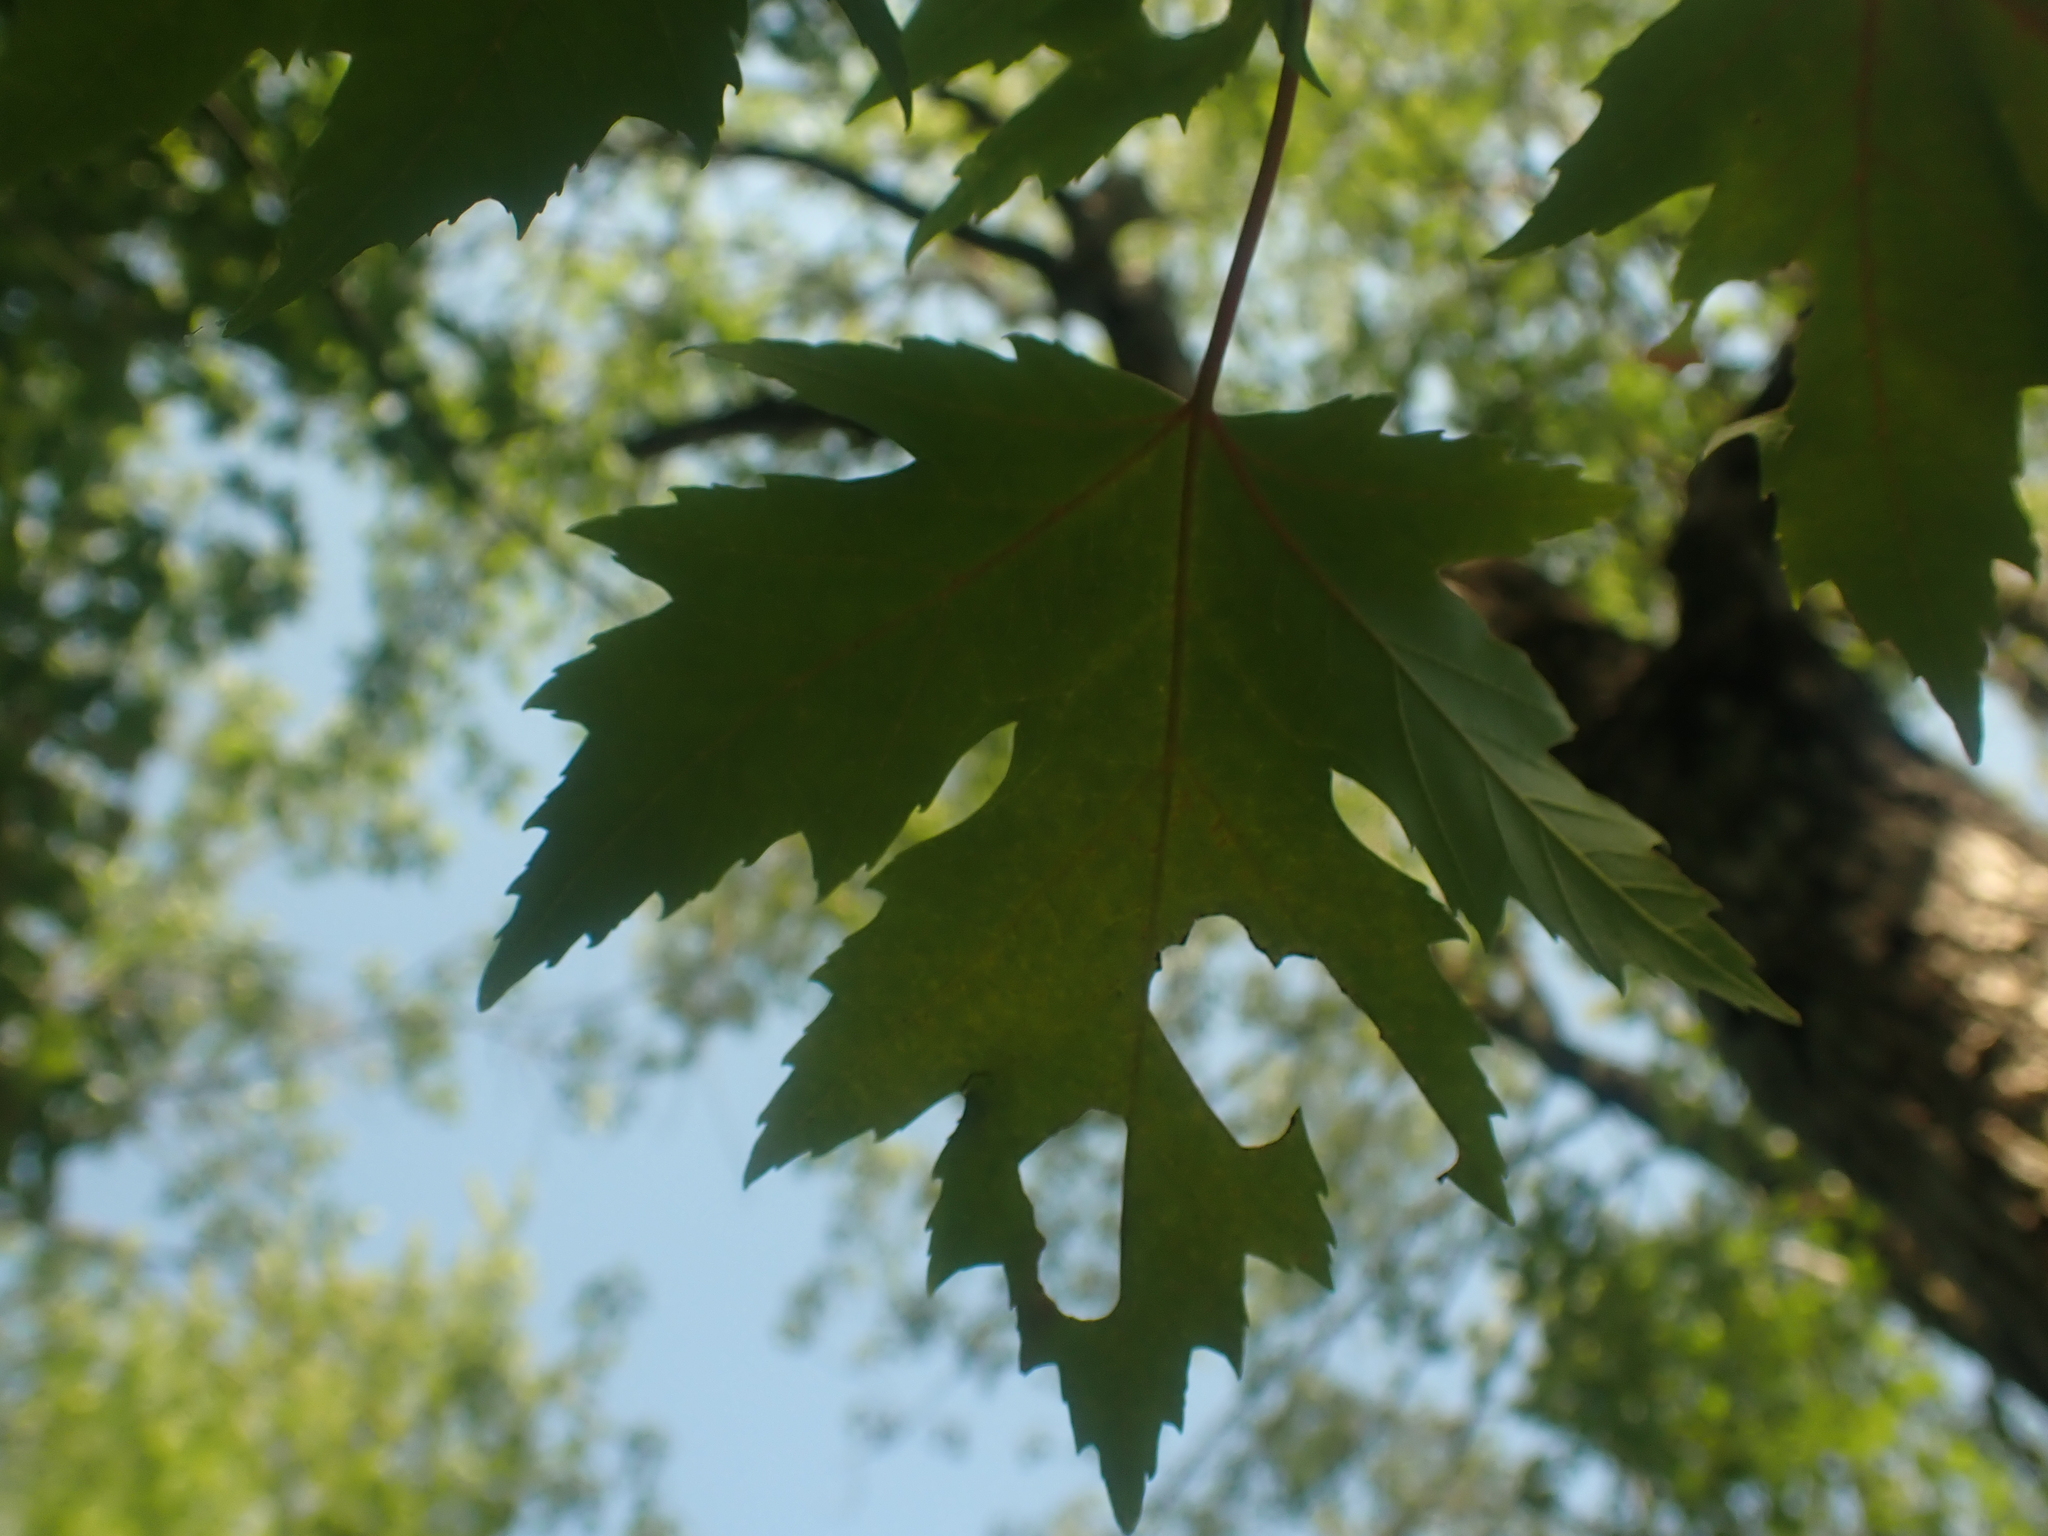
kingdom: Plantae
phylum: Tracheophyta
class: Magnoliopsida
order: Sapindales
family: Sapindaceae
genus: Acer
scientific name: Acer saccharinum
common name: Silver maple
